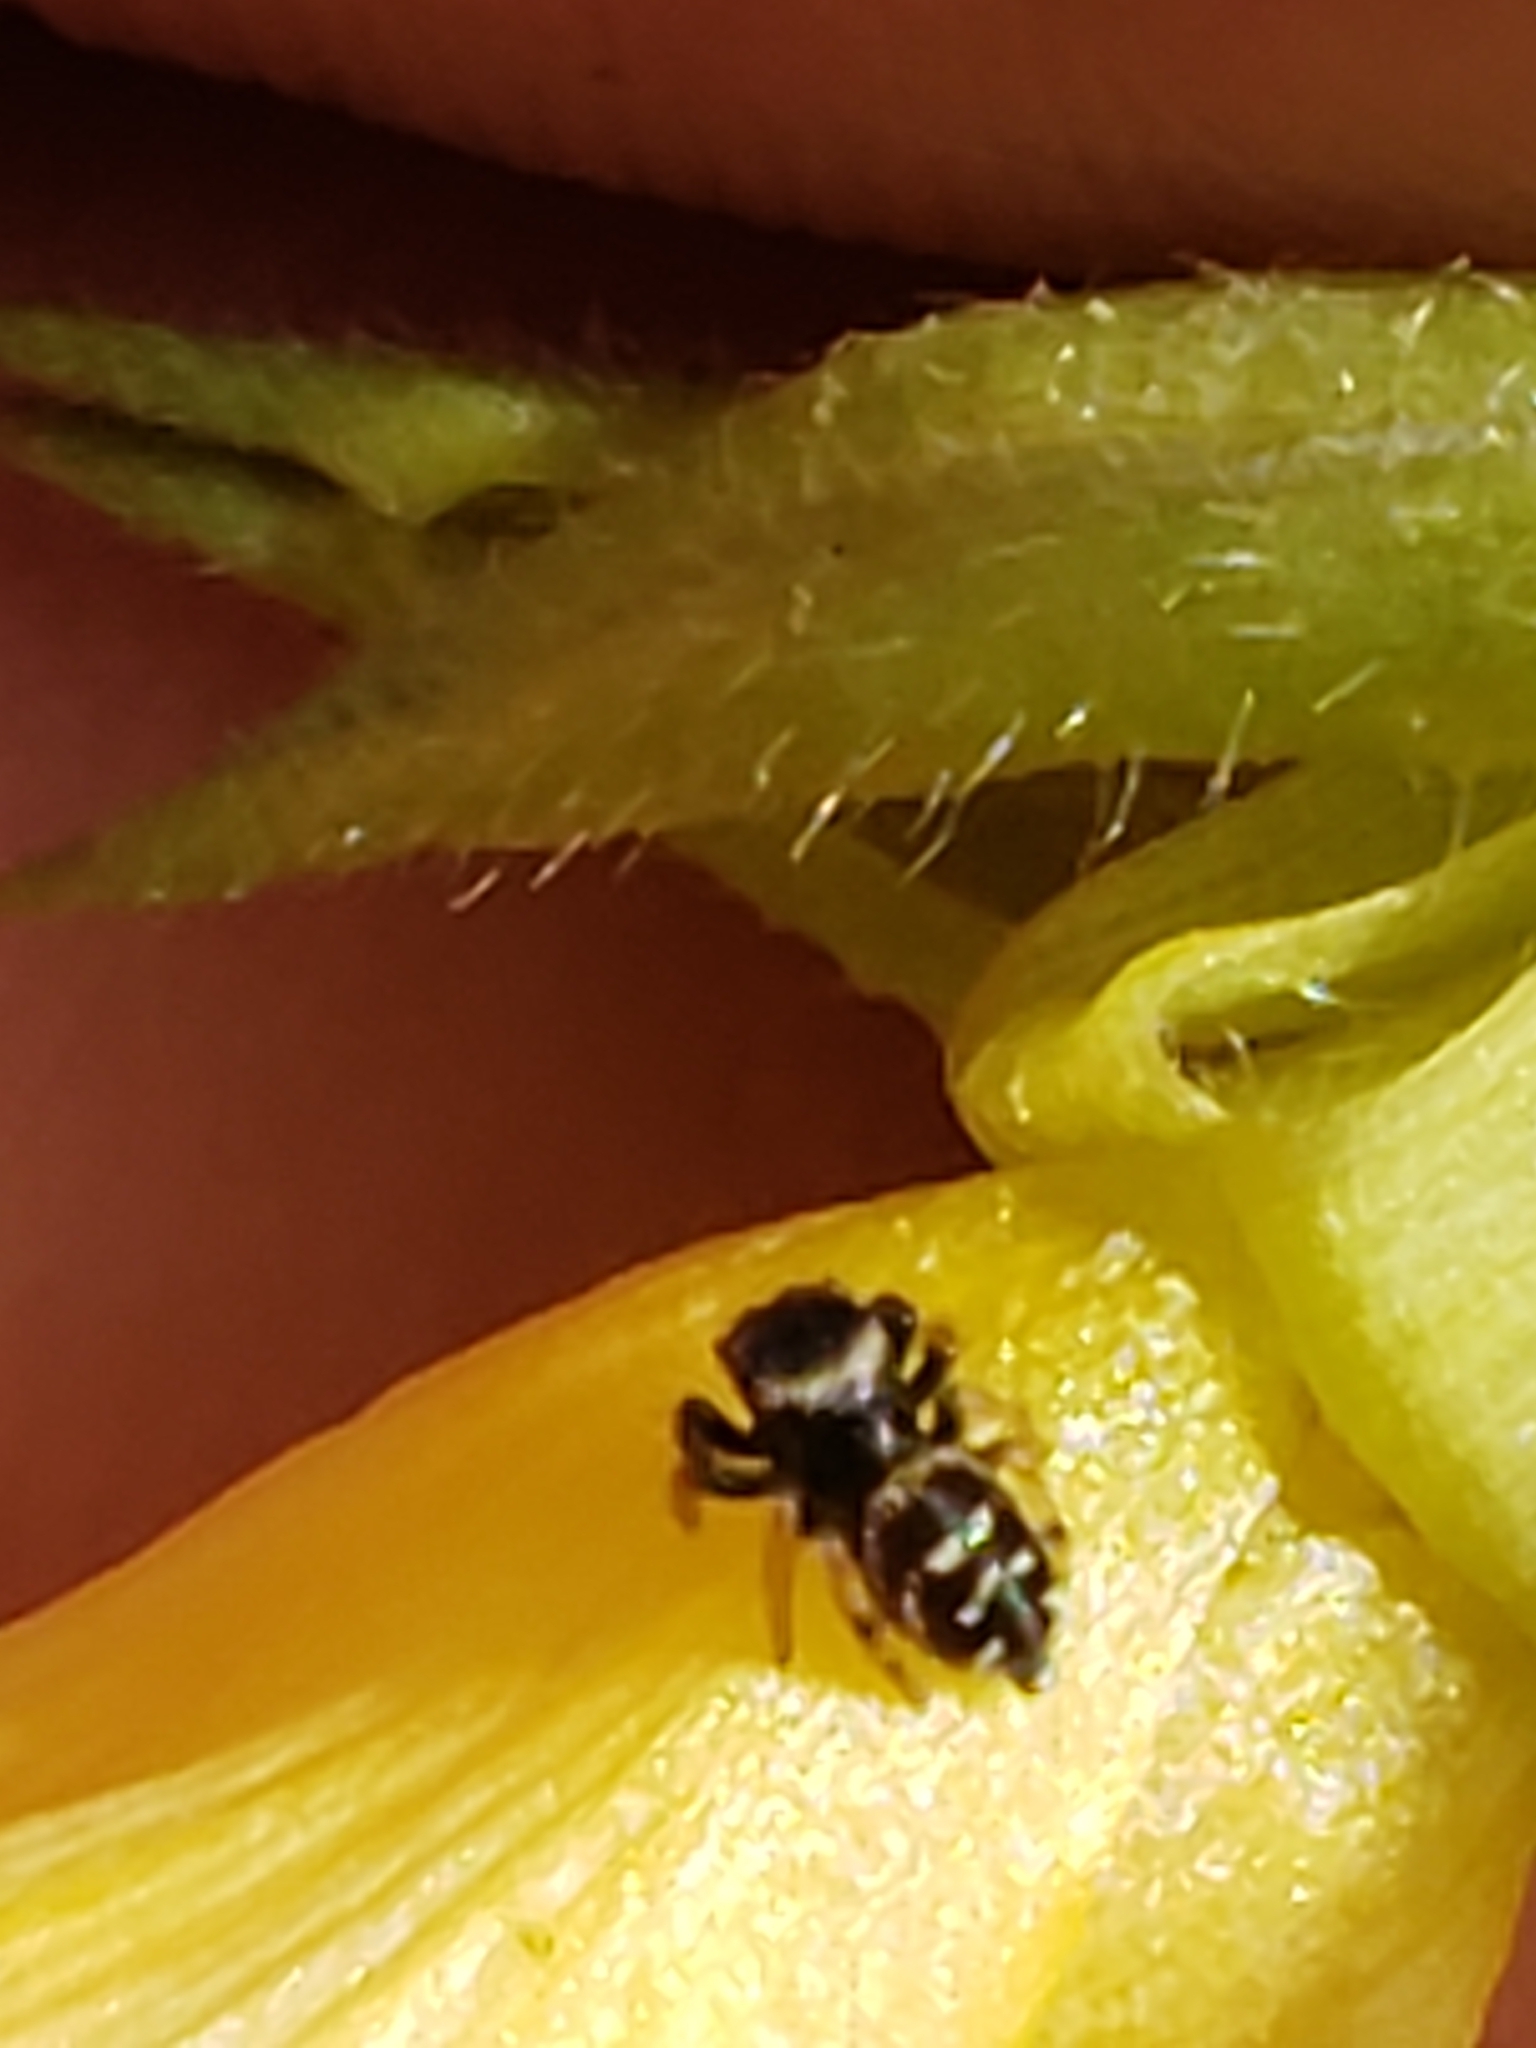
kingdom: Animalia
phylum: Arthropoda
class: Arachnida
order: Araneae
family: Salticidae
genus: Paraphidippus
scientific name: Paraphidippus aurantius
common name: Jumping spiders
